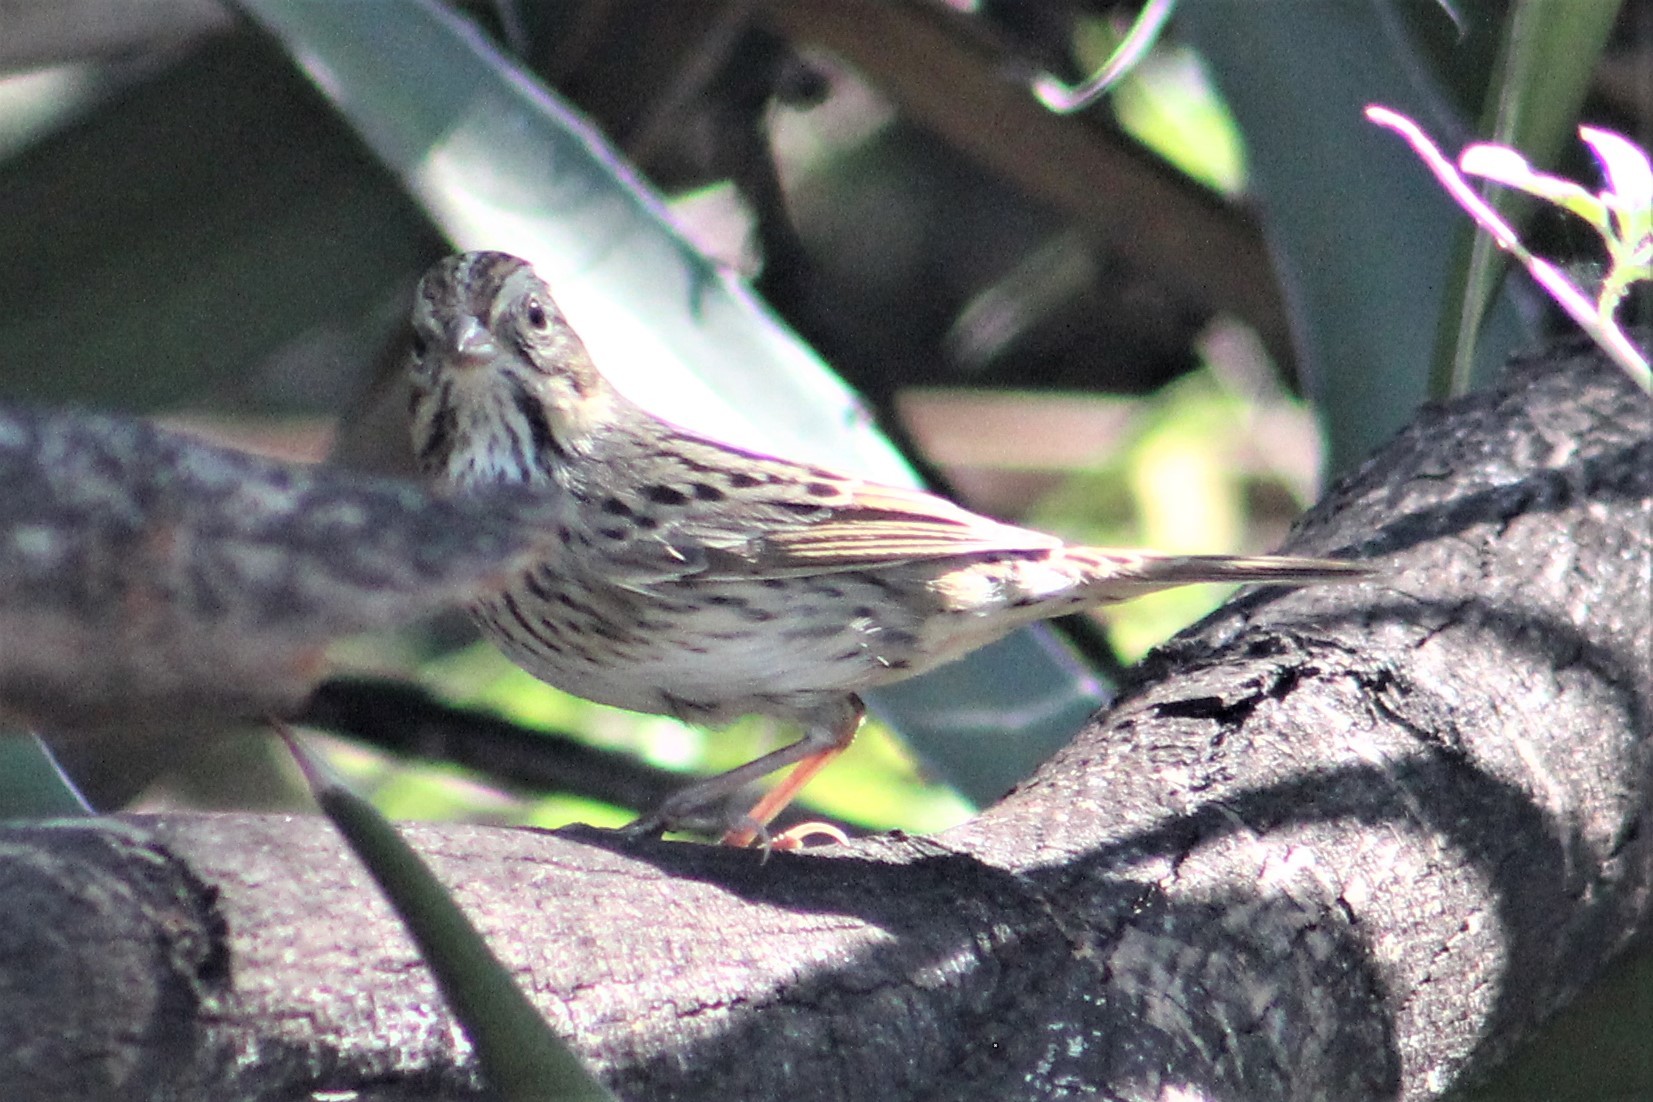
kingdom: Animalia
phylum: Chordata
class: Aves
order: Passeriformes
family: Passerellidae
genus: Melospiza
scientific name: Melospiza lincolnii
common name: Lincoln's sparrow
